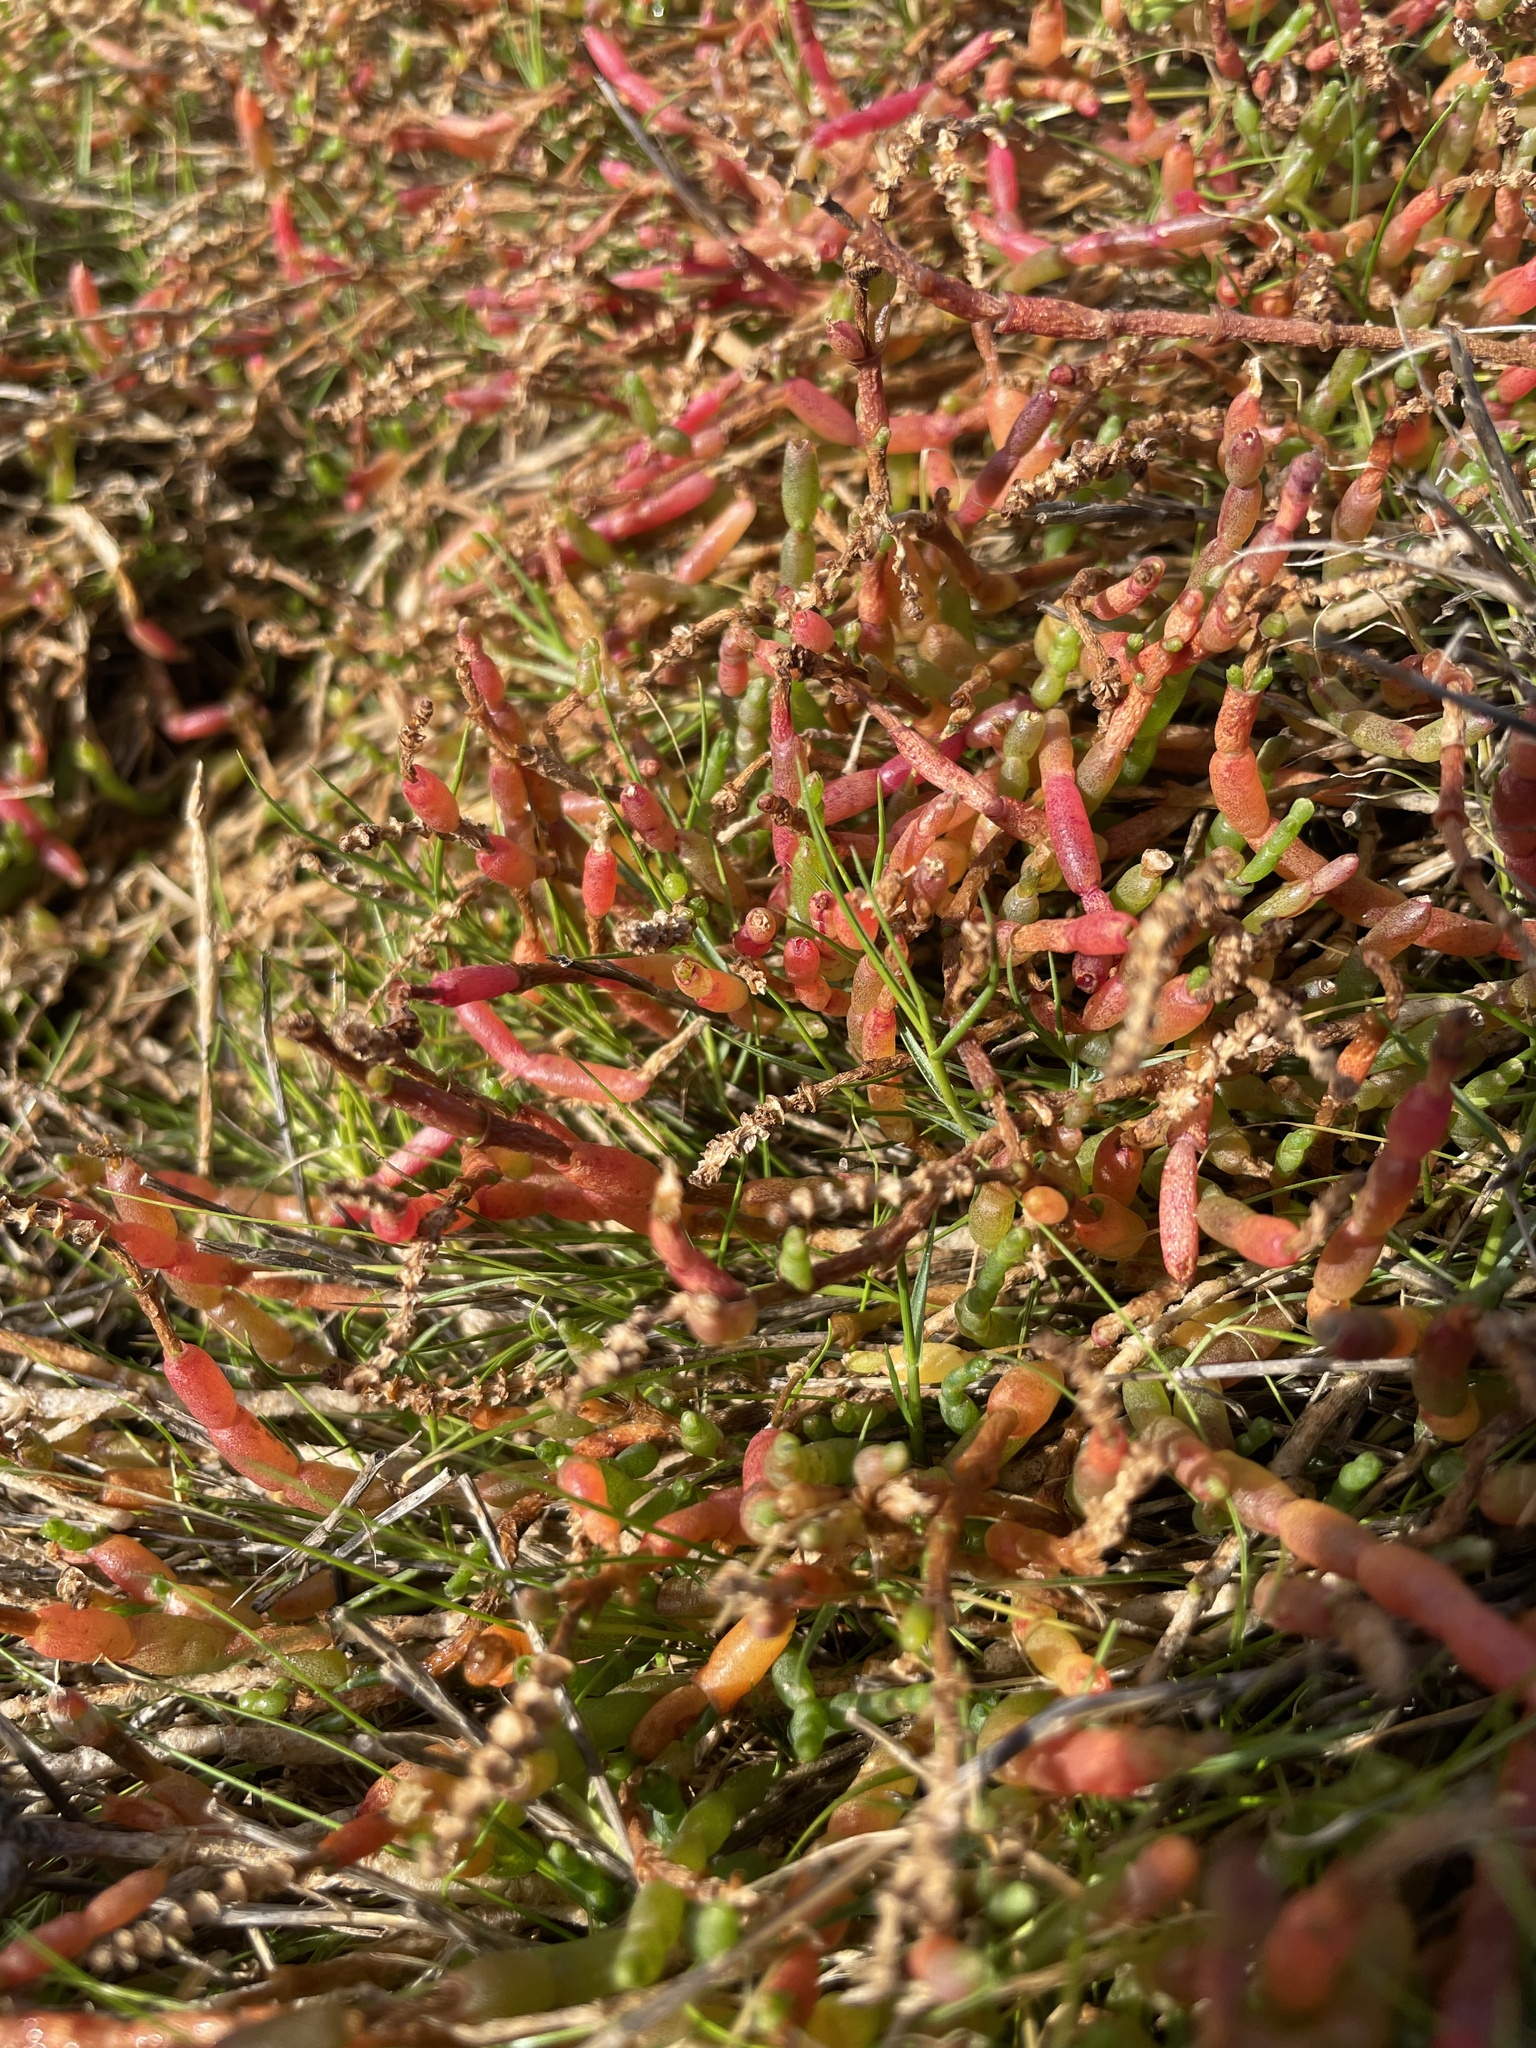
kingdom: Plantae
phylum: Tracheophyta
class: Magnoliopsida
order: Caryophyllales
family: Amaranthaceae
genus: Salicornia
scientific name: Salicornia quinqueflora
